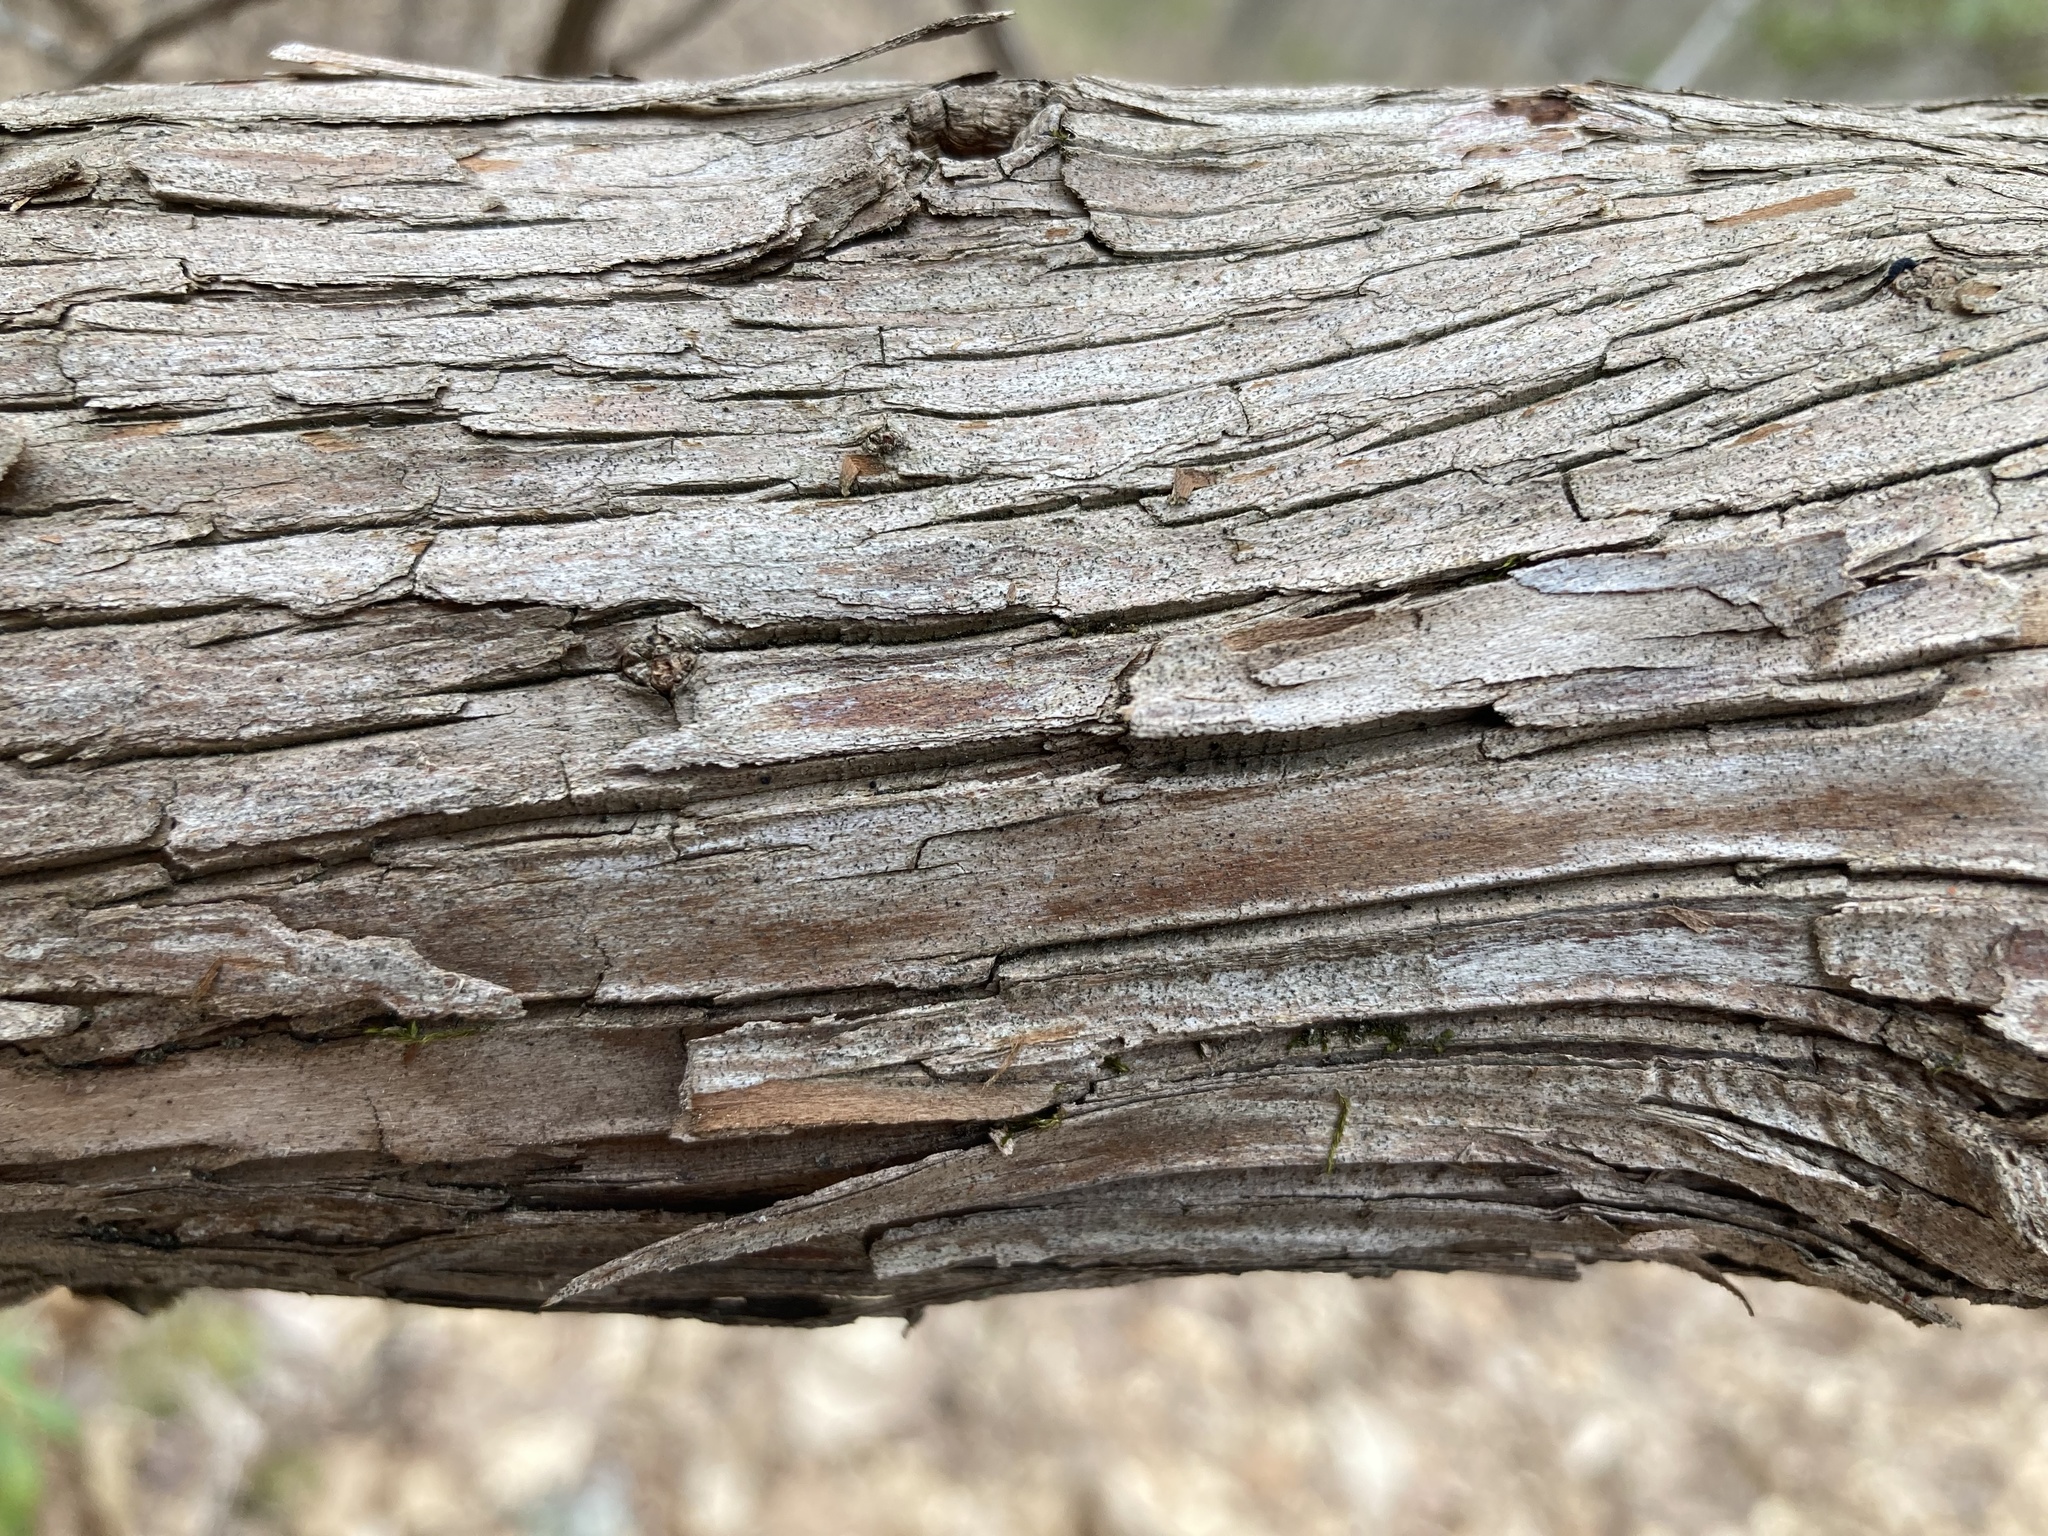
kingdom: Plantae
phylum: Tracheophyta
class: Magnoliopsida
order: Ericales
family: Ericaceae
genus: Kalmia
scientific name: Kalmia latifolia
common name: Mountain-laurel
